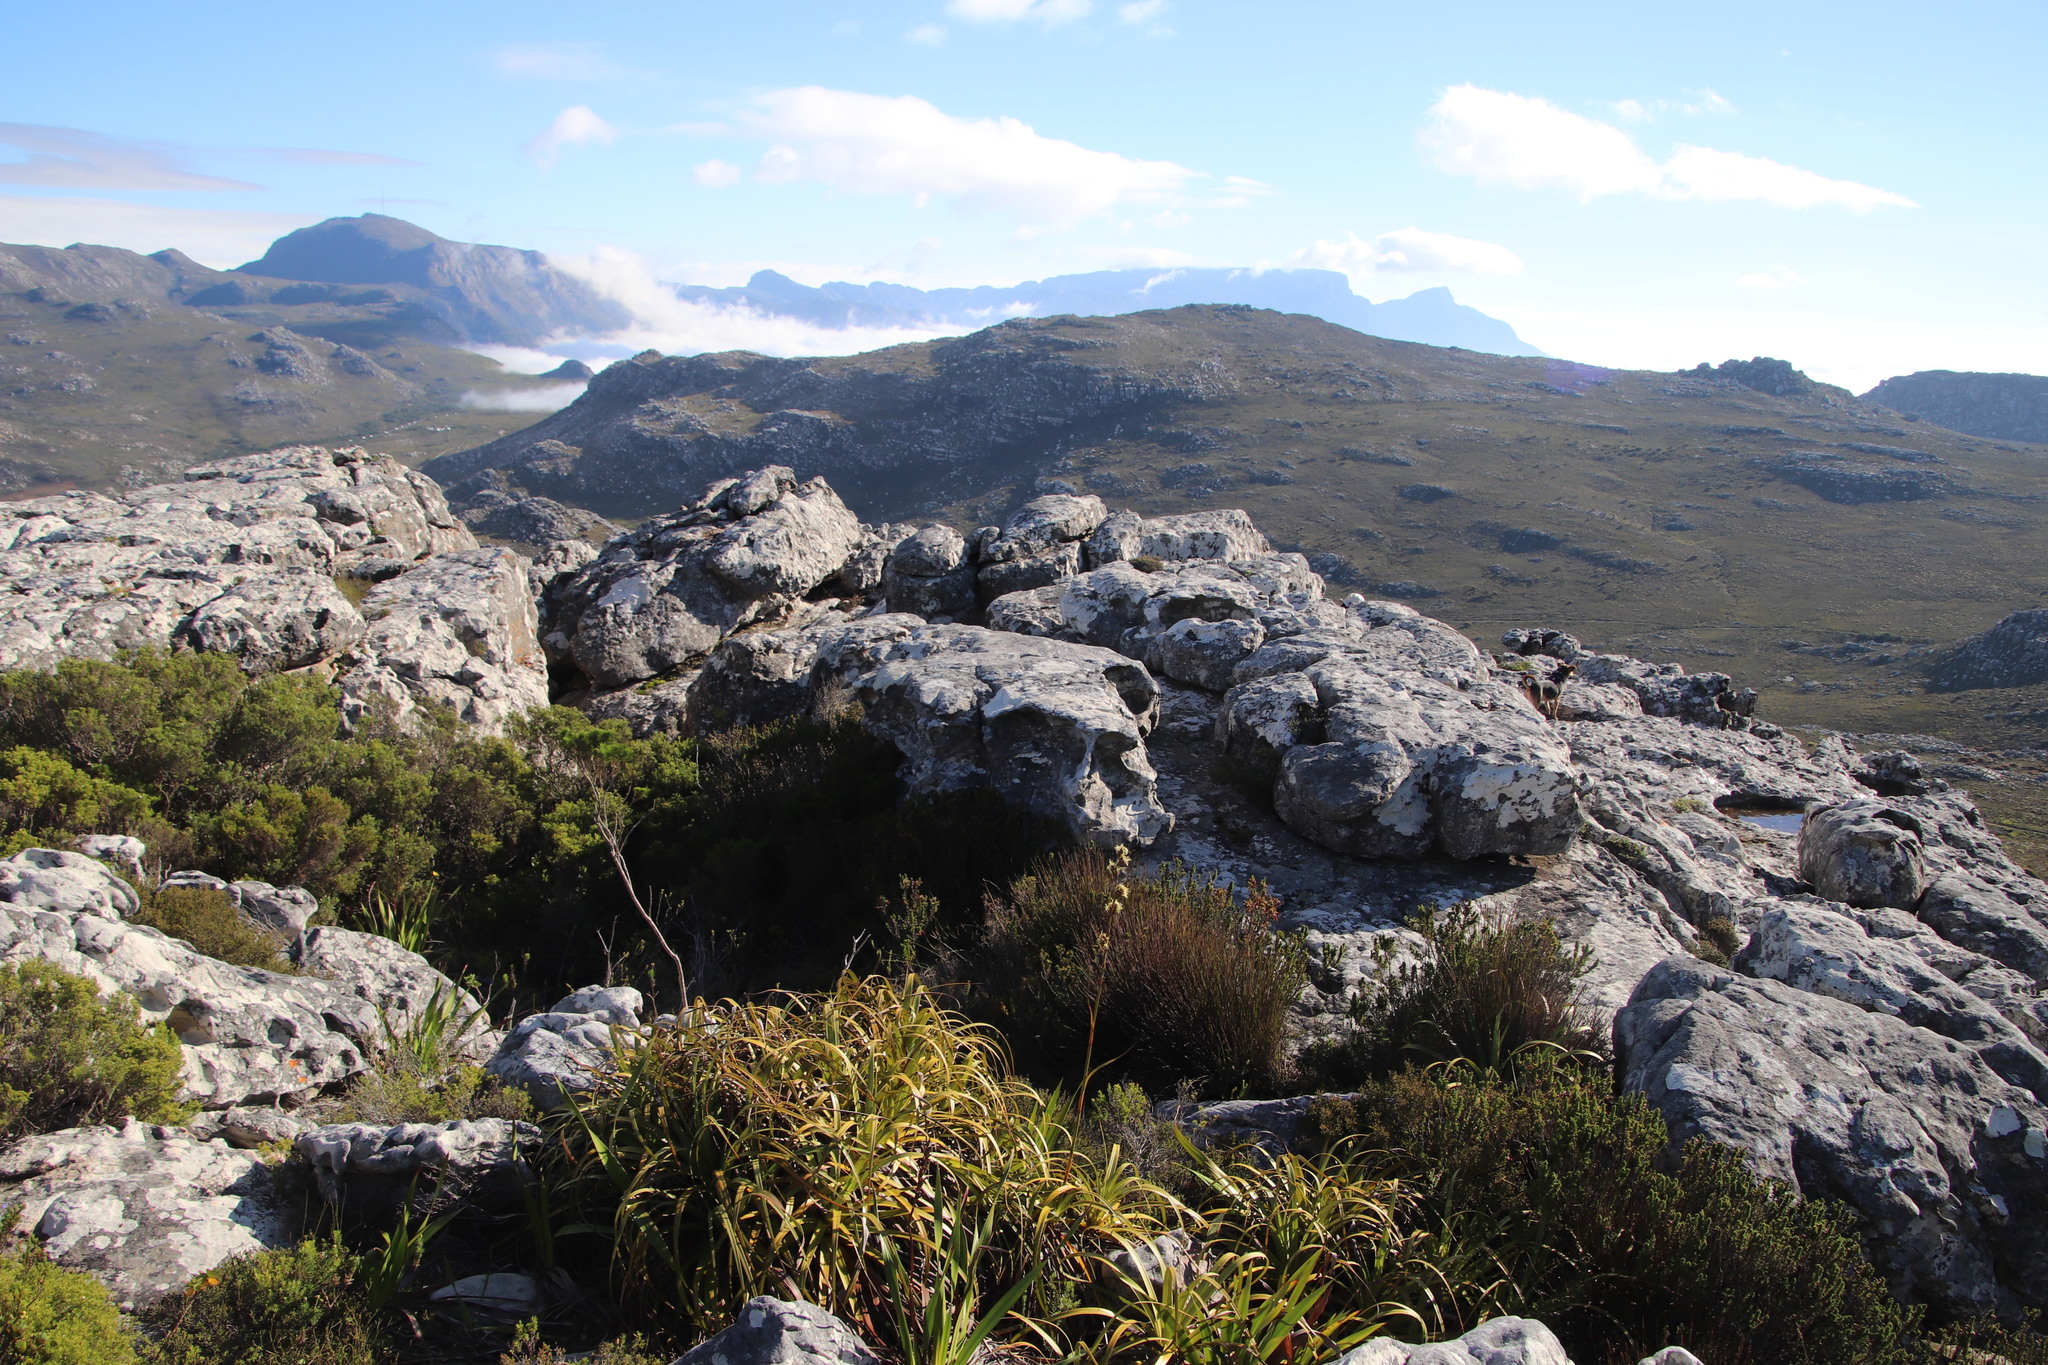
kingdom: Plantae
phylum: Tracheophyta
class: Liliopsida
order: Poales
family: Cyperaceae
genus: Tetraria
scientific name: Tetraria thermalis
